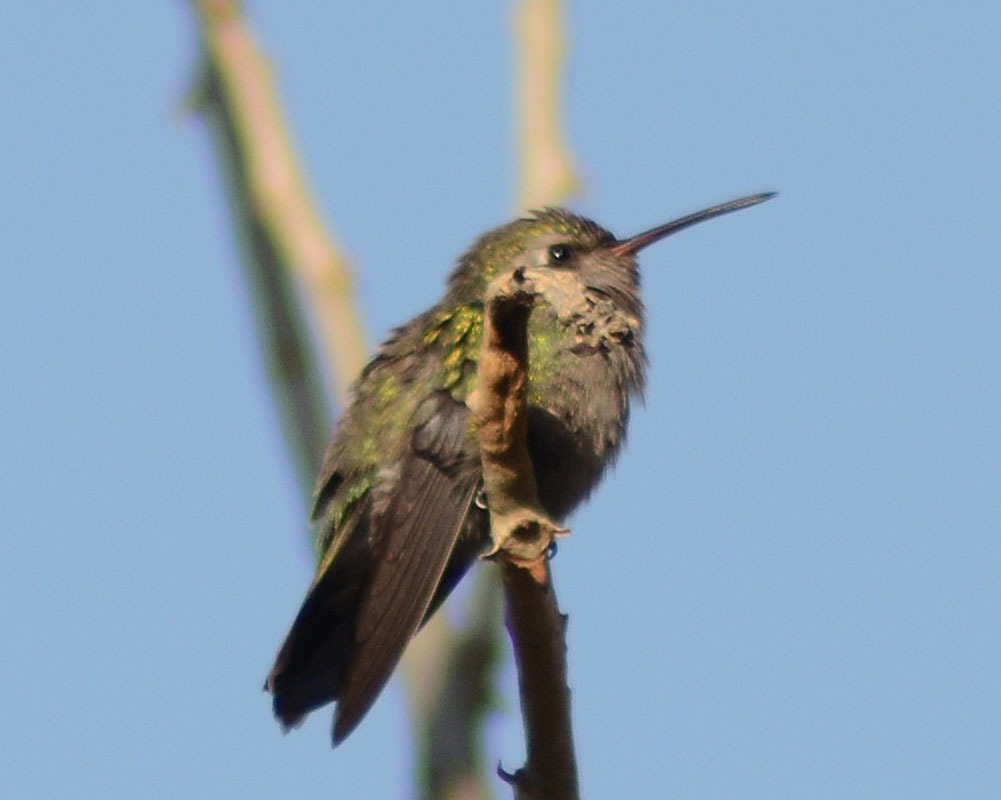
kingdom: Animalia
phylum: Chordata
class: Aves
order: Apodiformes
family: Trochilidae
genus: Cynanthus
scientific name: Cynanthus latirostris
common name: Broad-billed hummingbird
